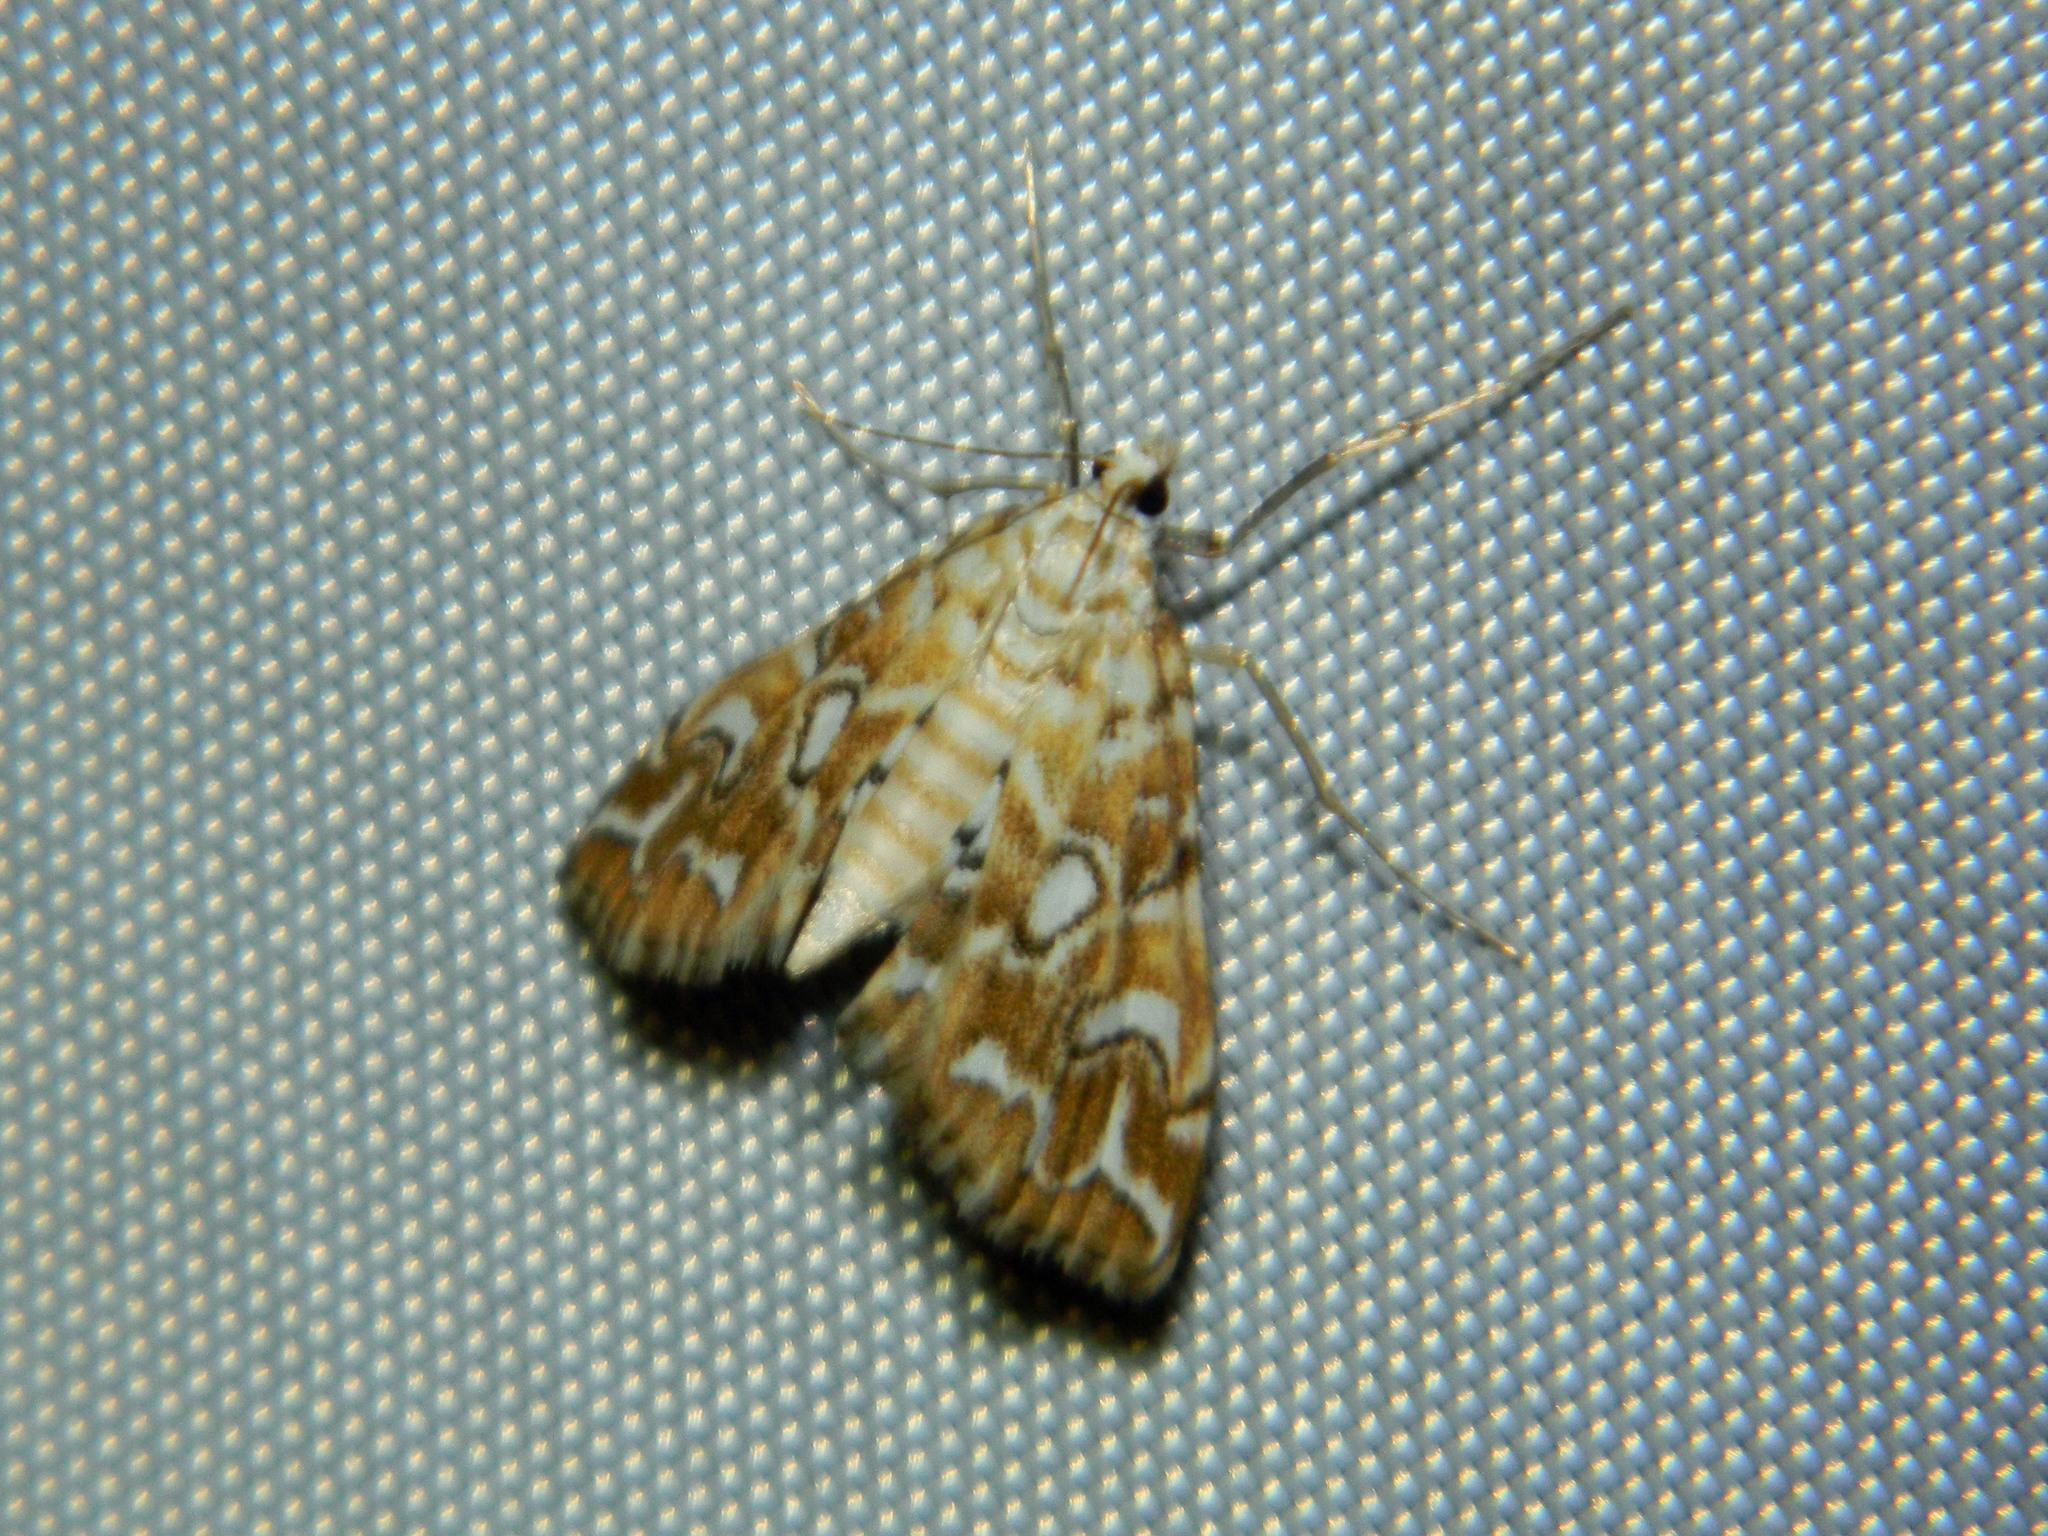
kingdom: Animalia
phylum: Arthropoda
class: Insecta
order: Lepidoptera
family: Crambidae
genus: Elophila
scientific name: Elophila icciusalis
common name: Pondside pyralid moth
